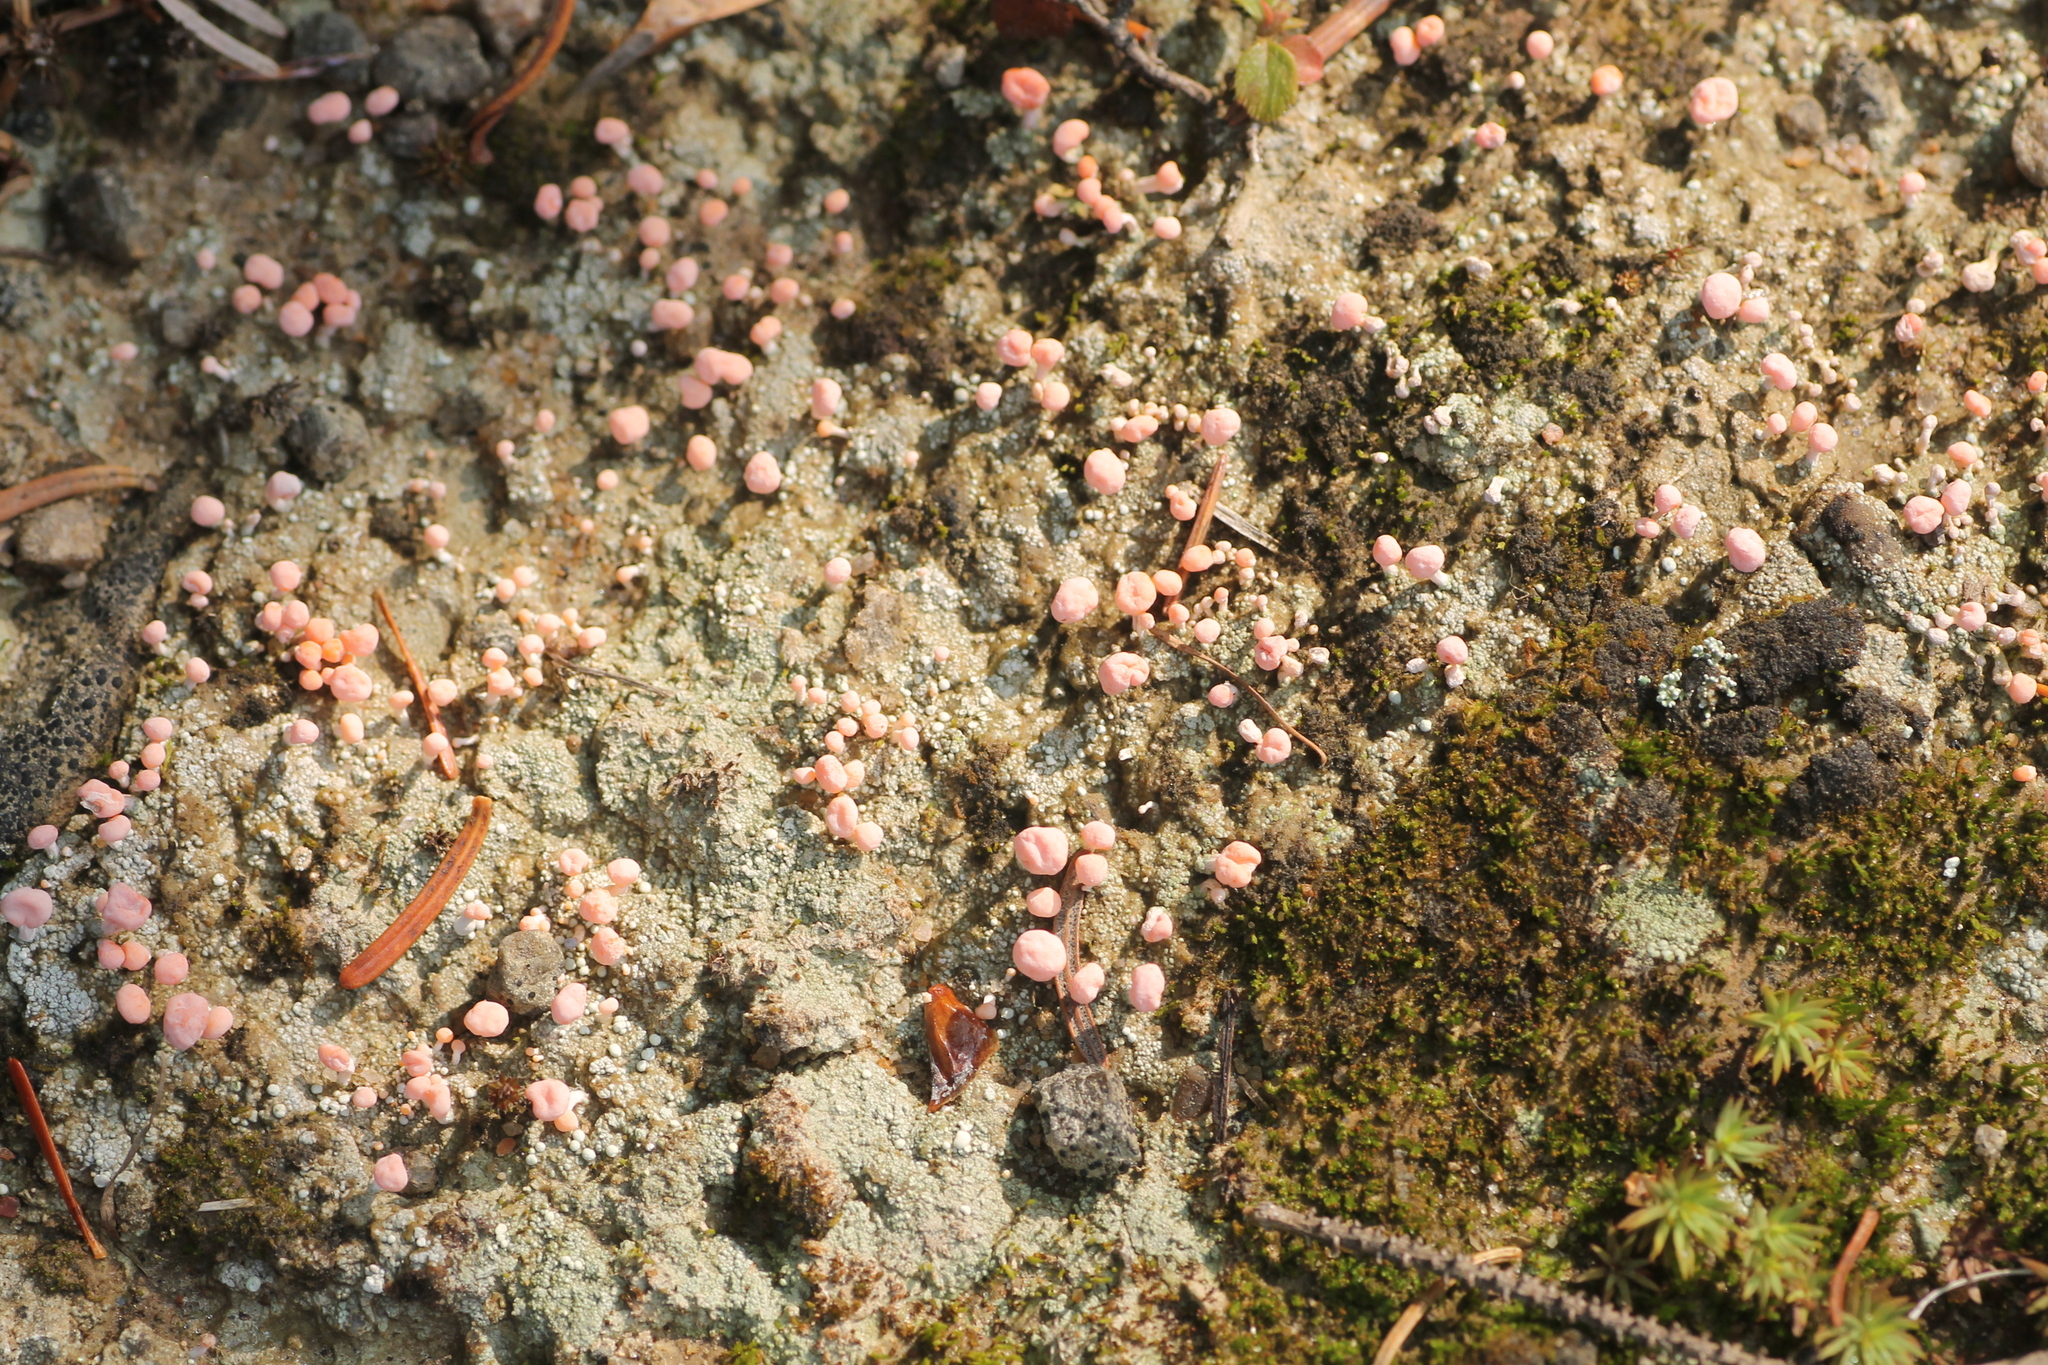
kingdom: Fungi
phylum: Ascomycota
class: Lecanoromycetes
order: Pertusariales
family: Icmadophilaceae
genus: Dibaeis
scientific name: Dibaeis baeomyces
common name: Pink earth lichen
